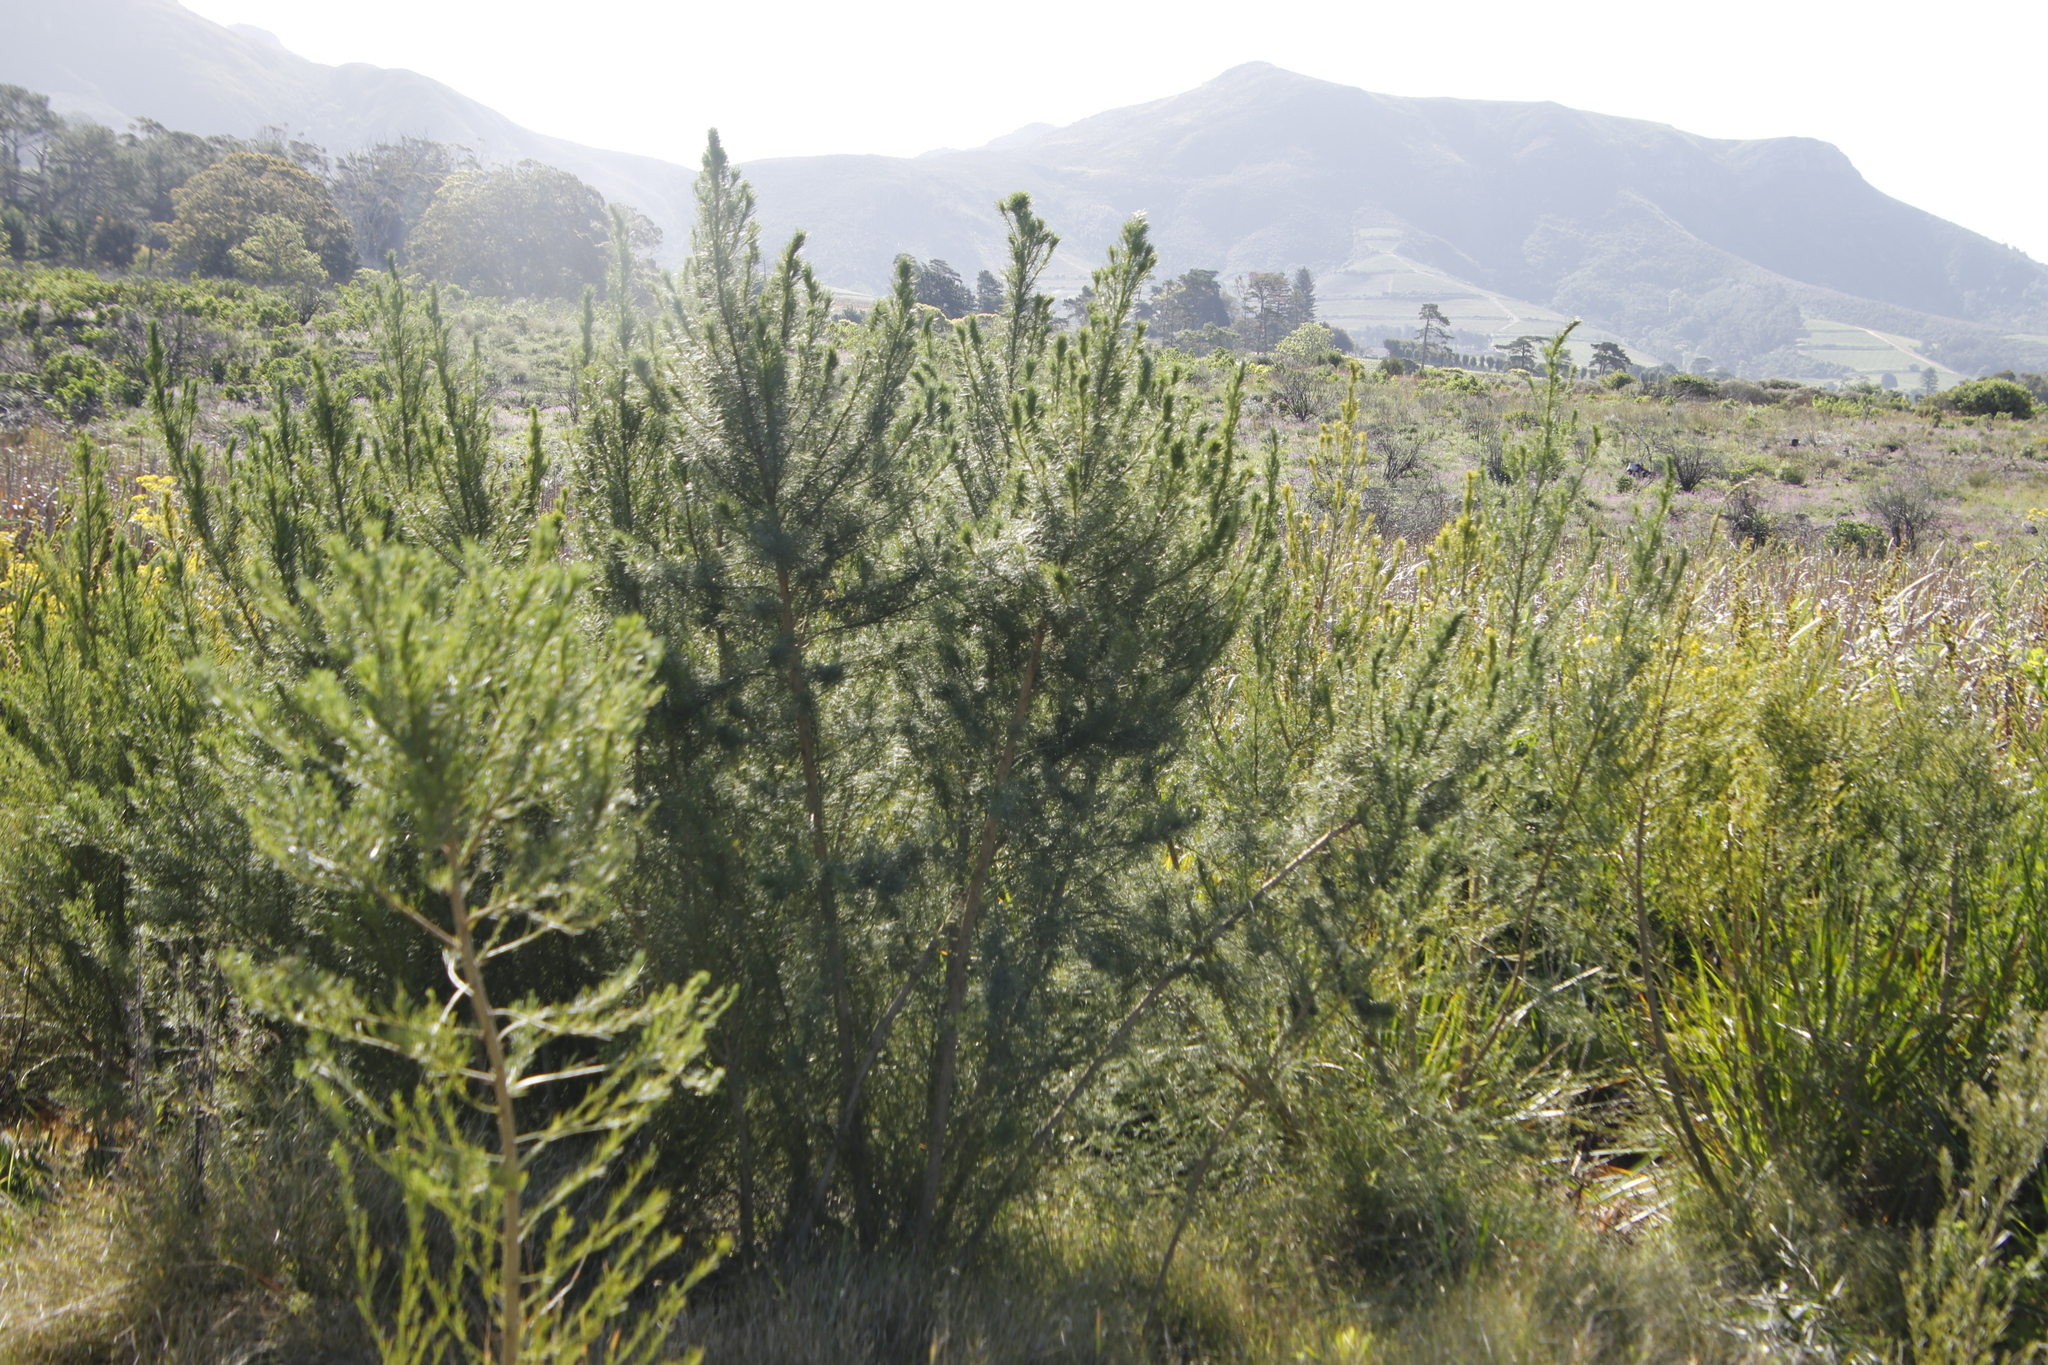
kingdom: Plantae
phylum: Tracheophyta
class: Magnoliopsida
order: Fabales
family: Fabaceae
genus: Psoralea
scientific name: Psoralea pinnata
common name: African scurfpea
